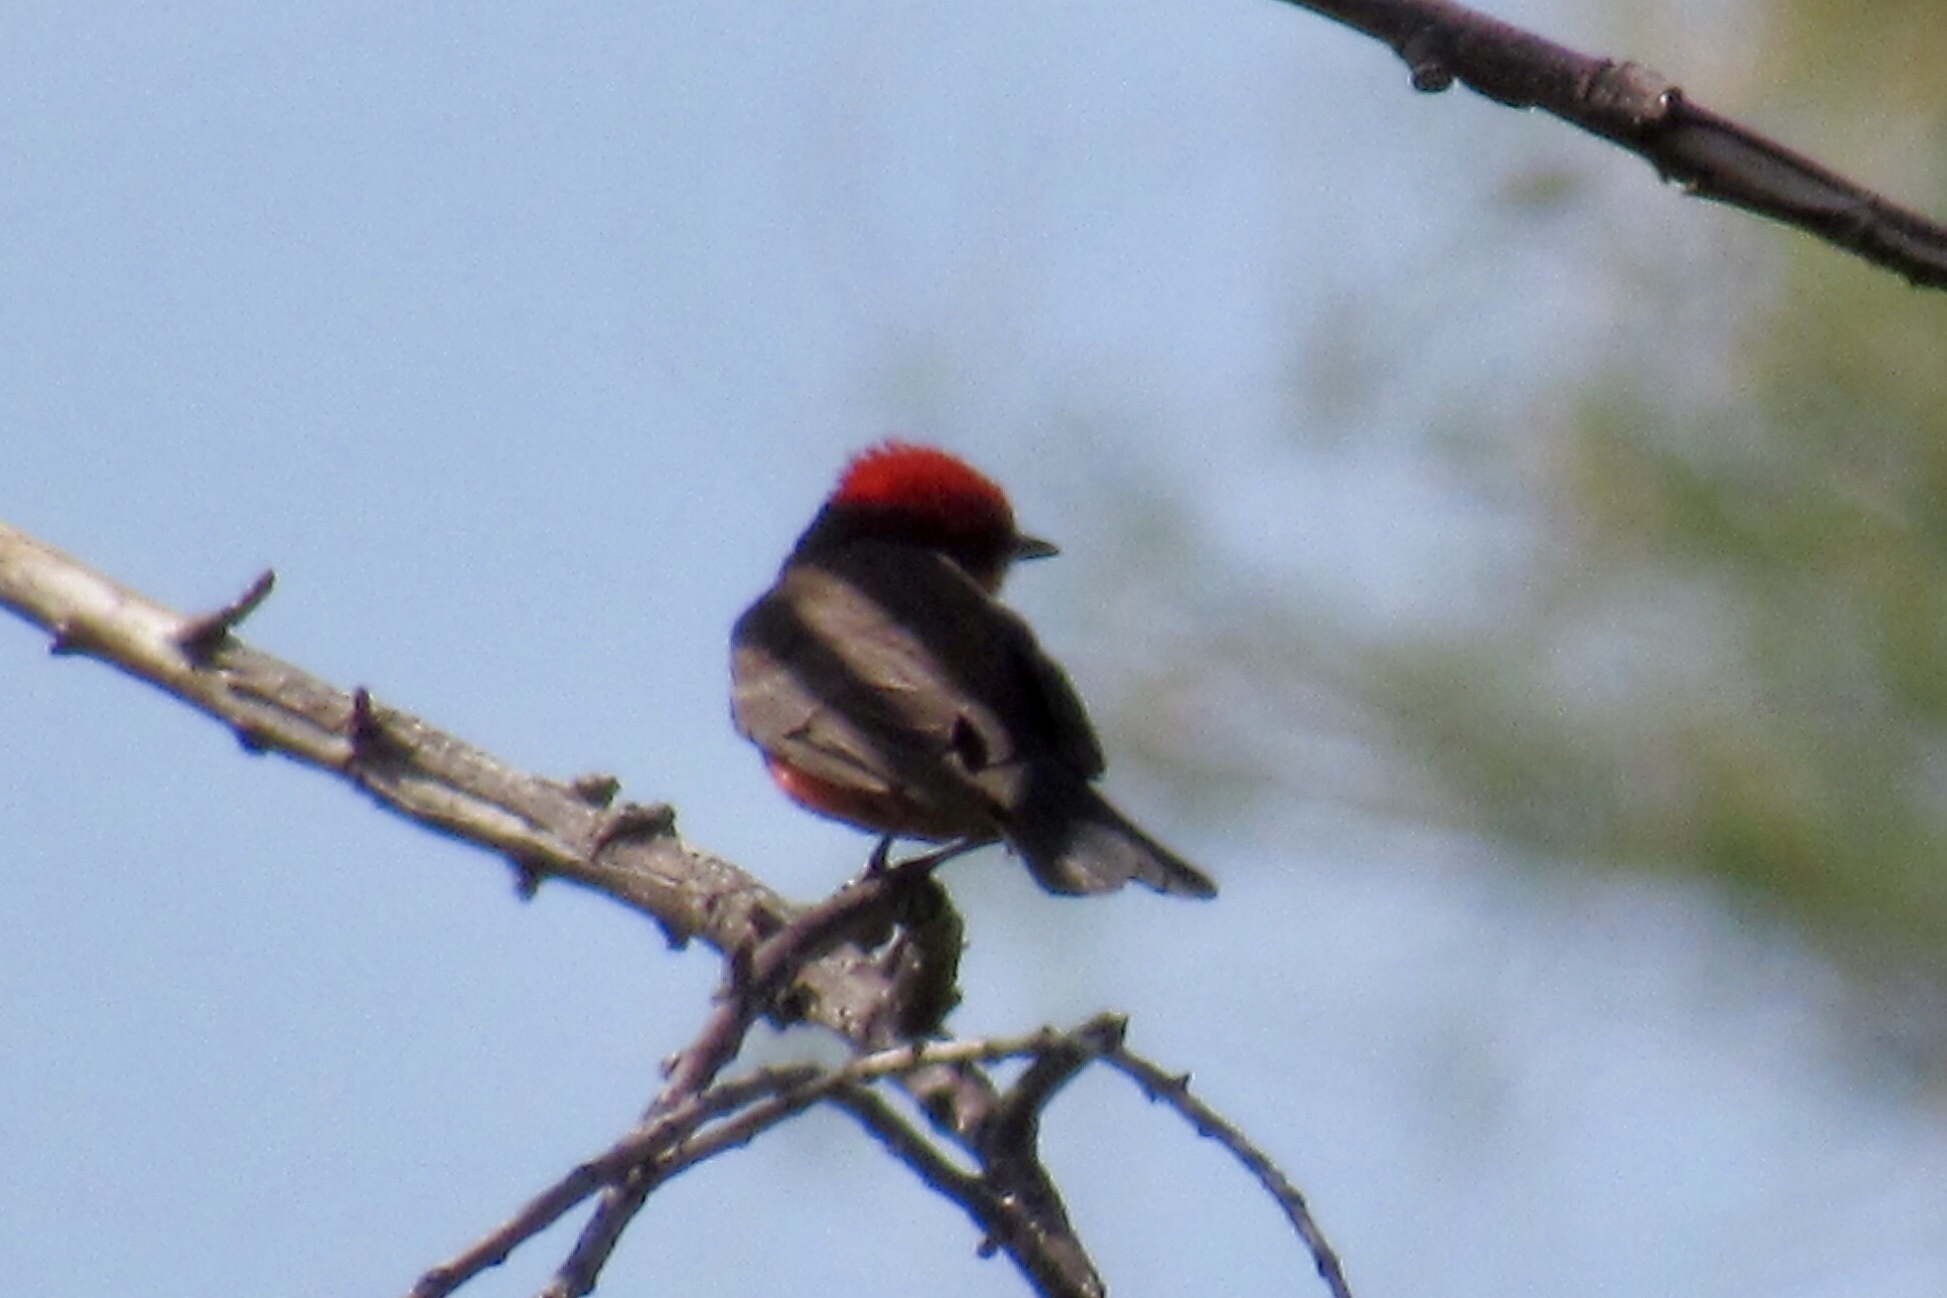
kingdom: Animalia
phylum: Chordata
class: Aves
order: Passeriformes
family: Tyrannidae
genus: Pyrocephalus
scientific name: Pyrocephalus rubinus
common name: Vermilion flycatcher
